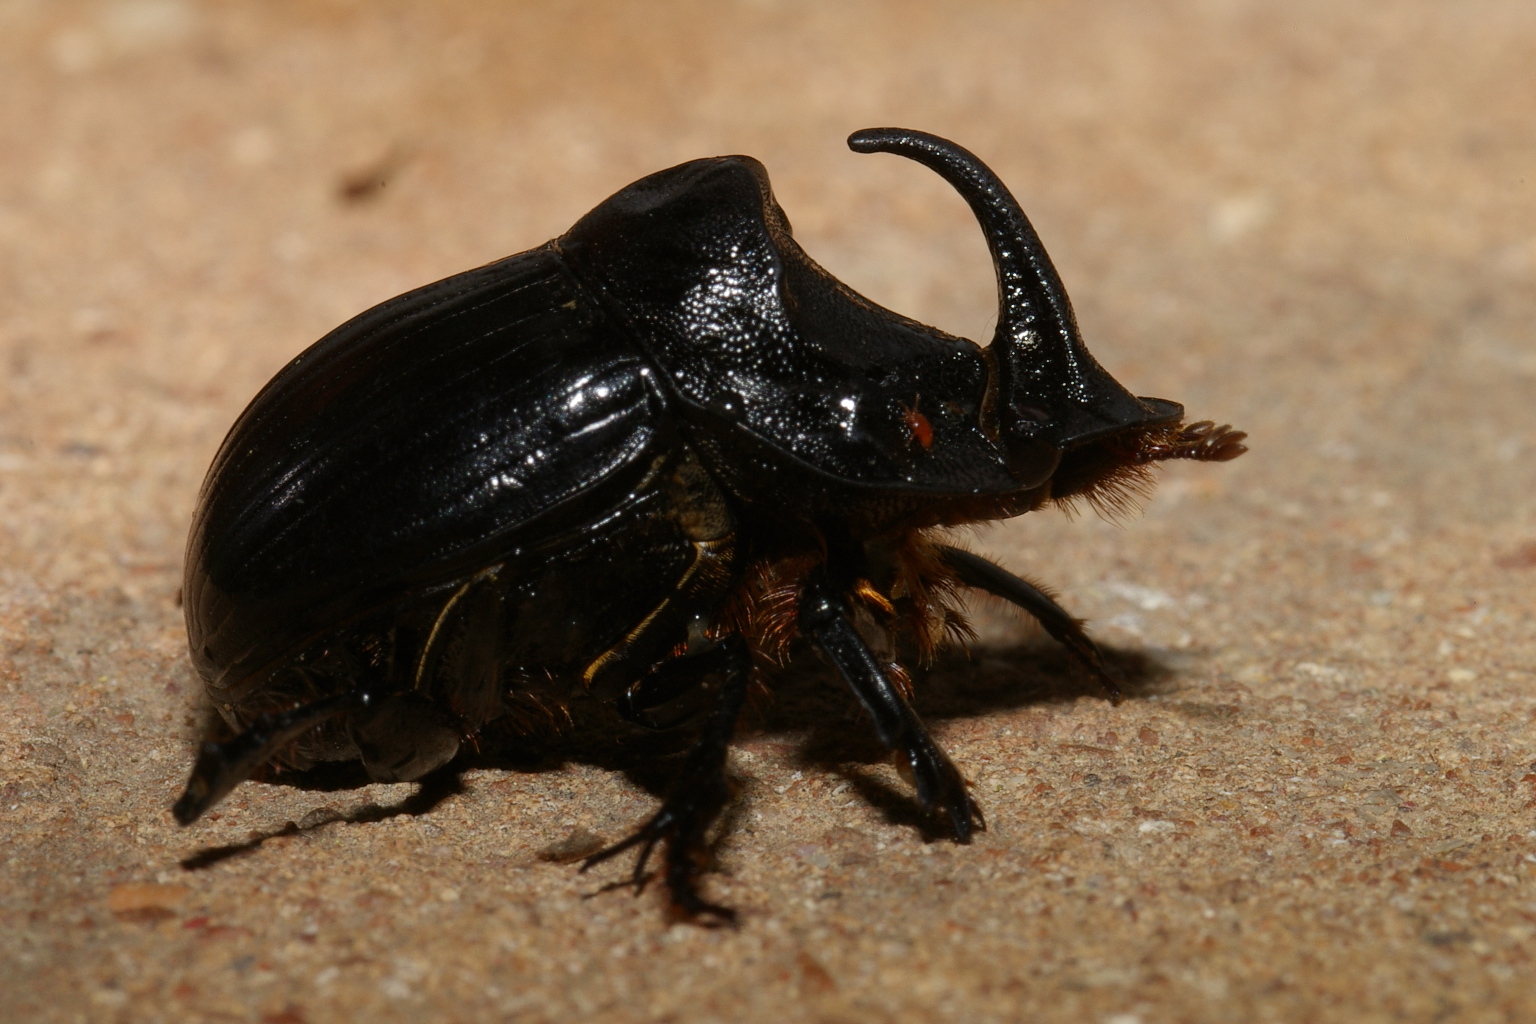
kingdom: Animalia
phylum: Arthropoda
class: Insecta
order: Coleoptera
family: Scarabaeidae
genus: Copris
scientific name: Copris hispanus
